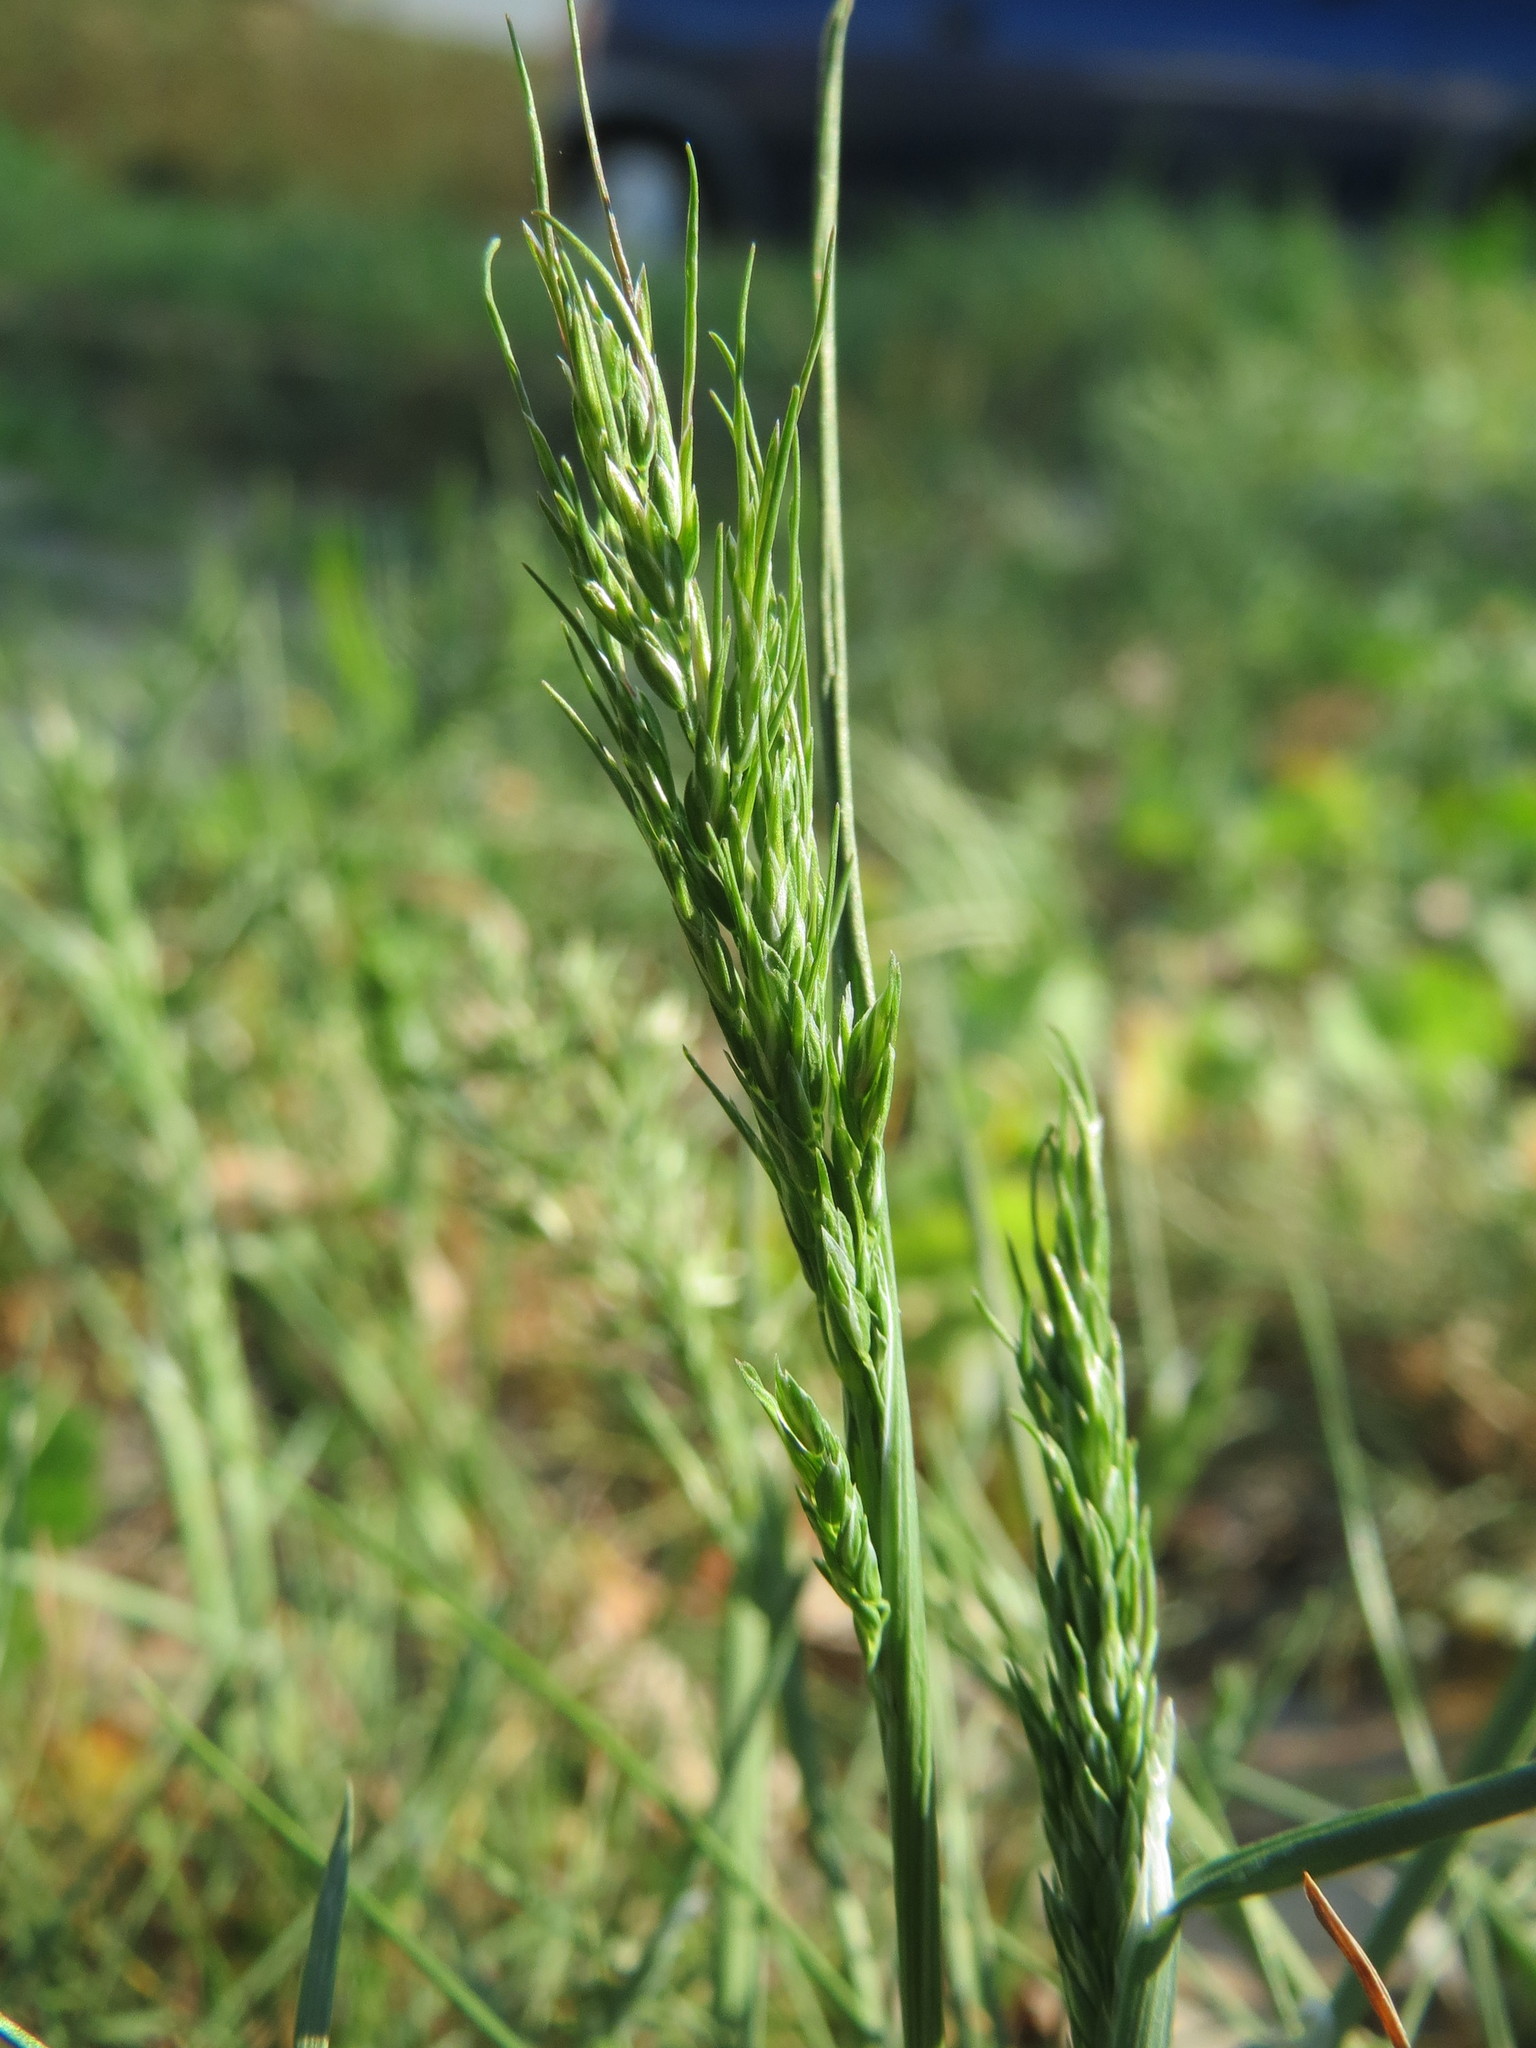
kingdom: Plantae
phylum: Tracheophyta
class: Liliopsida
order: Poales
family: Poaceae
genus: Poa
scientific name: Poa bulbosa
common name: Bulbous bluegrass
